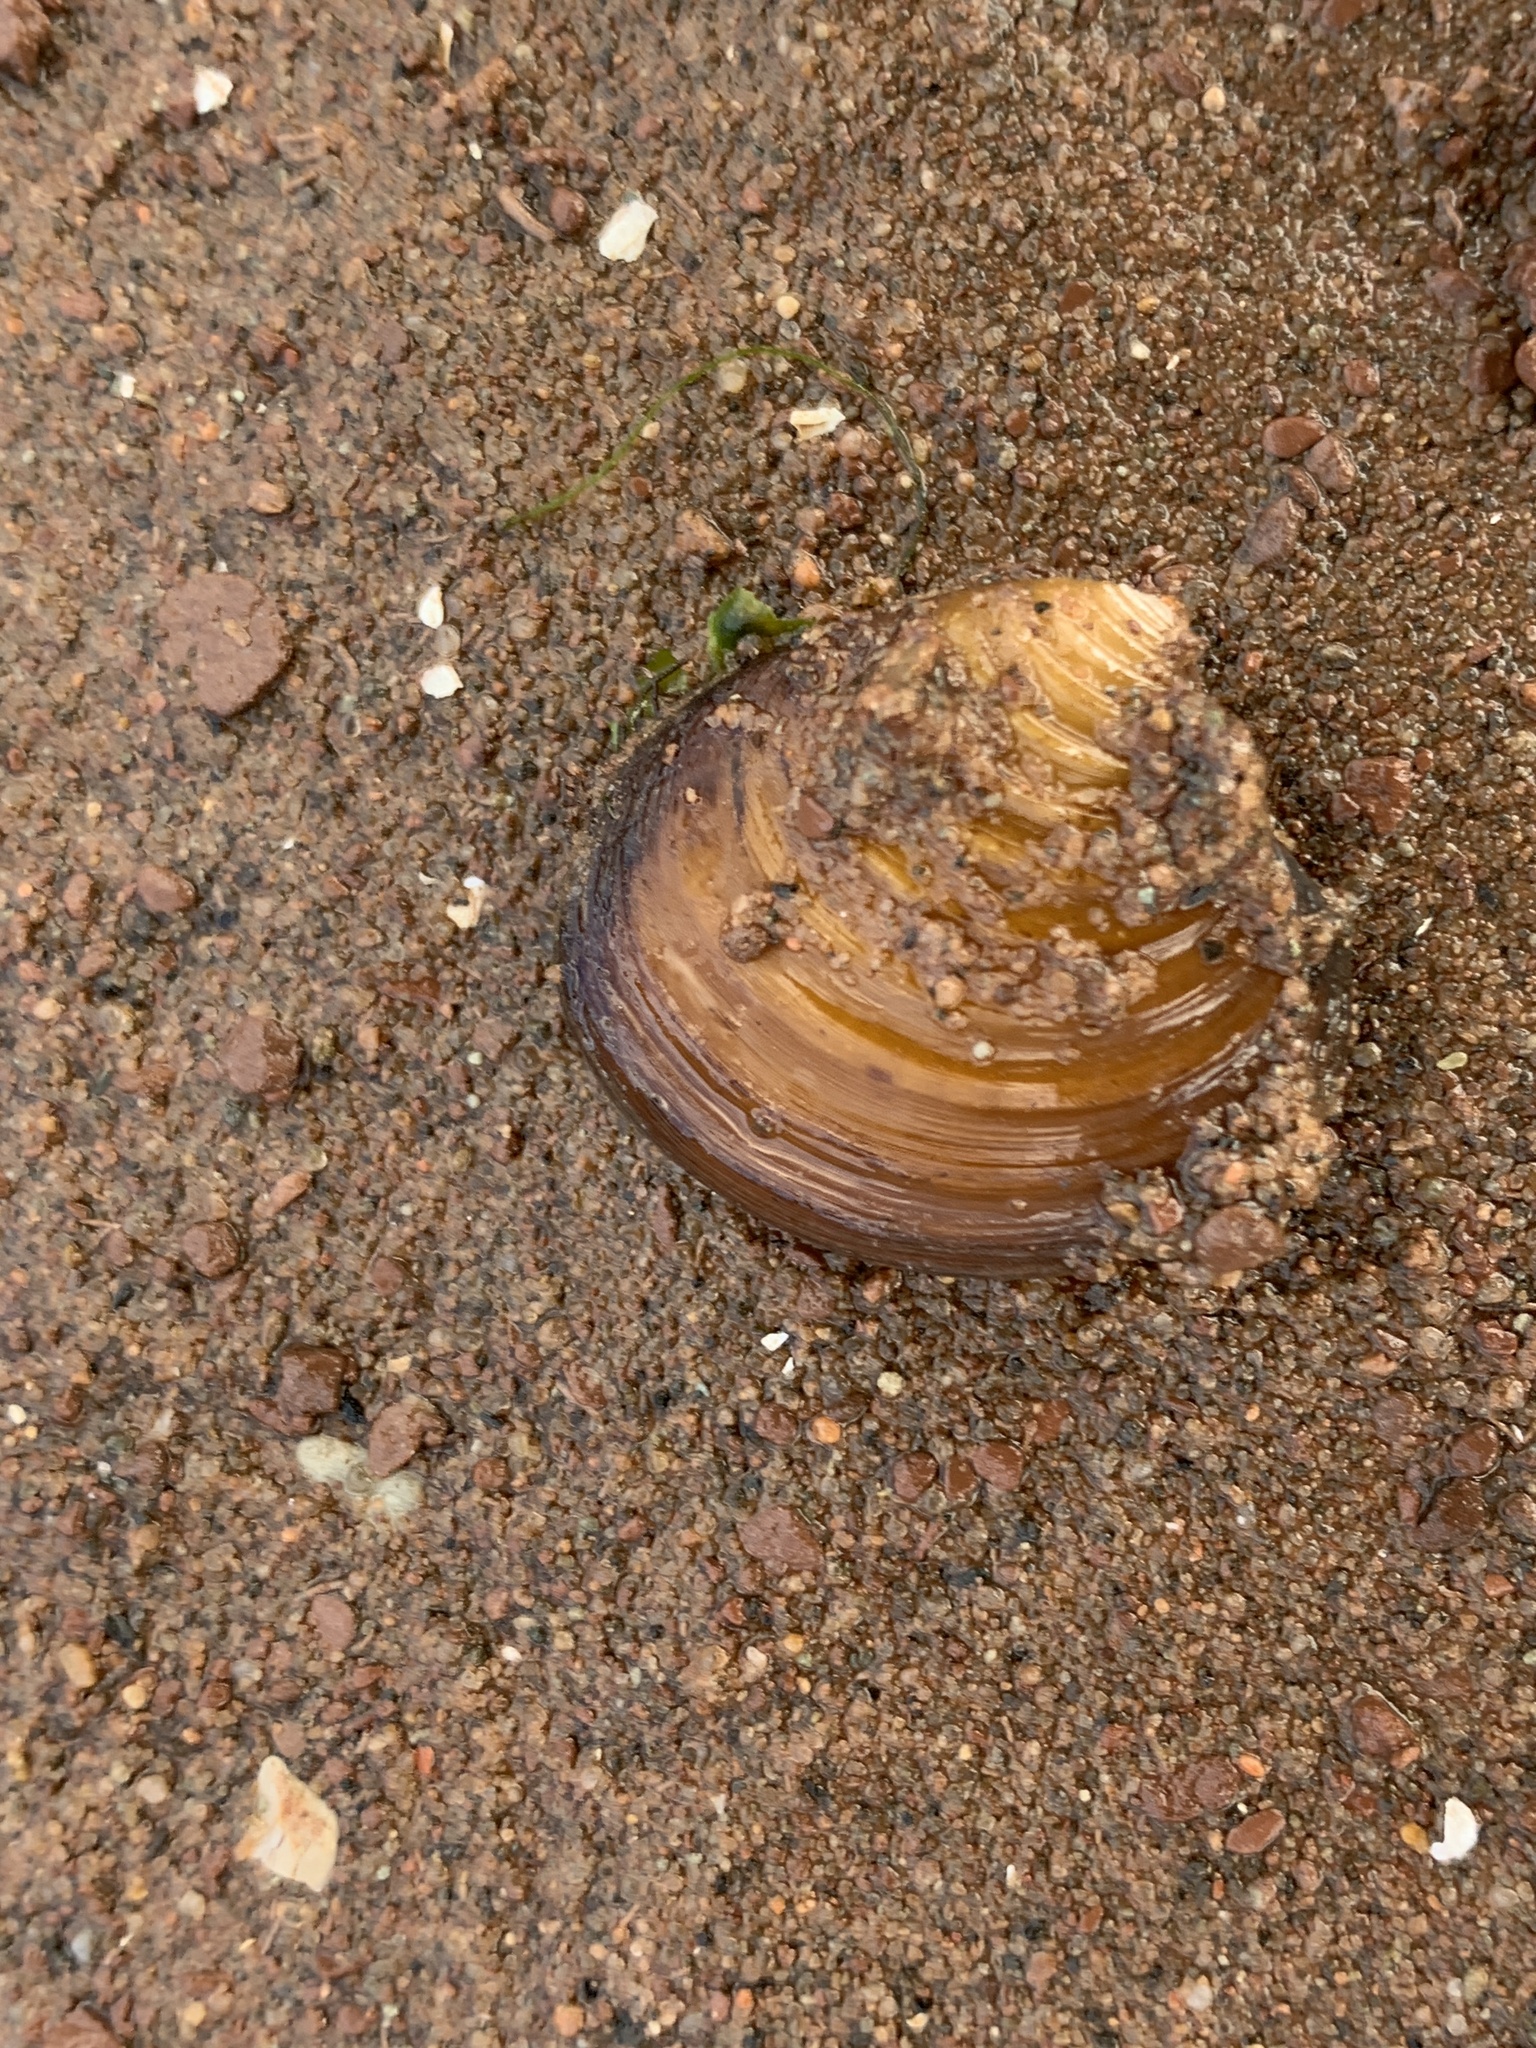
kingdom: Animalia
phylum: Mollusca
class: Bivalvia
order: Carditida
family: Astartidae
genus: Astarte
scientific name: Astarte undata
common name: Wavy astarte
